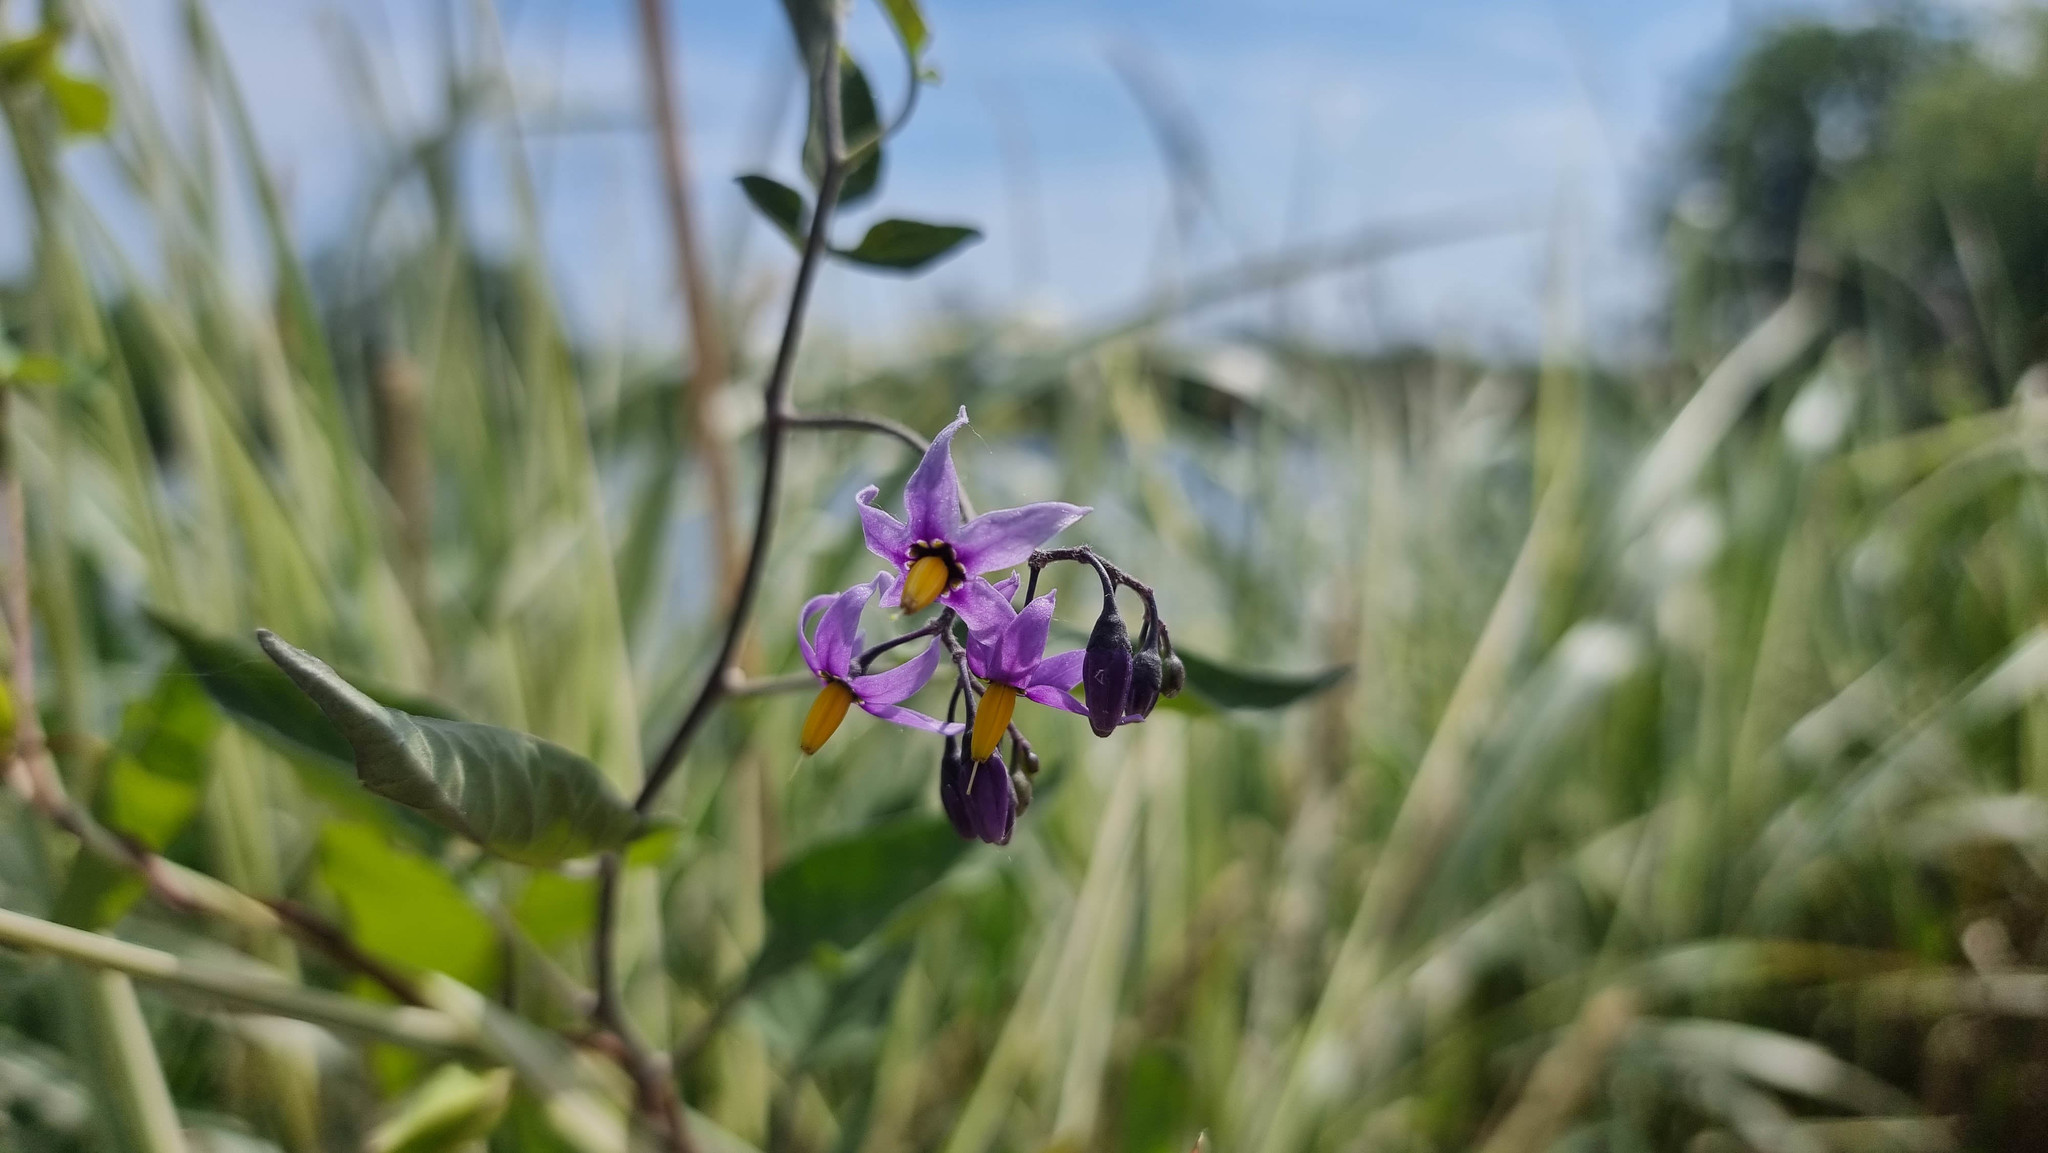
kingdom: Plantae
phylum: Tracheophyta
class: Magnoliopsida
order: Solanales
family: Solanaceae
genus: Solanum
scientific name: Solanum dulcamara
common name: Climbing nightshade
